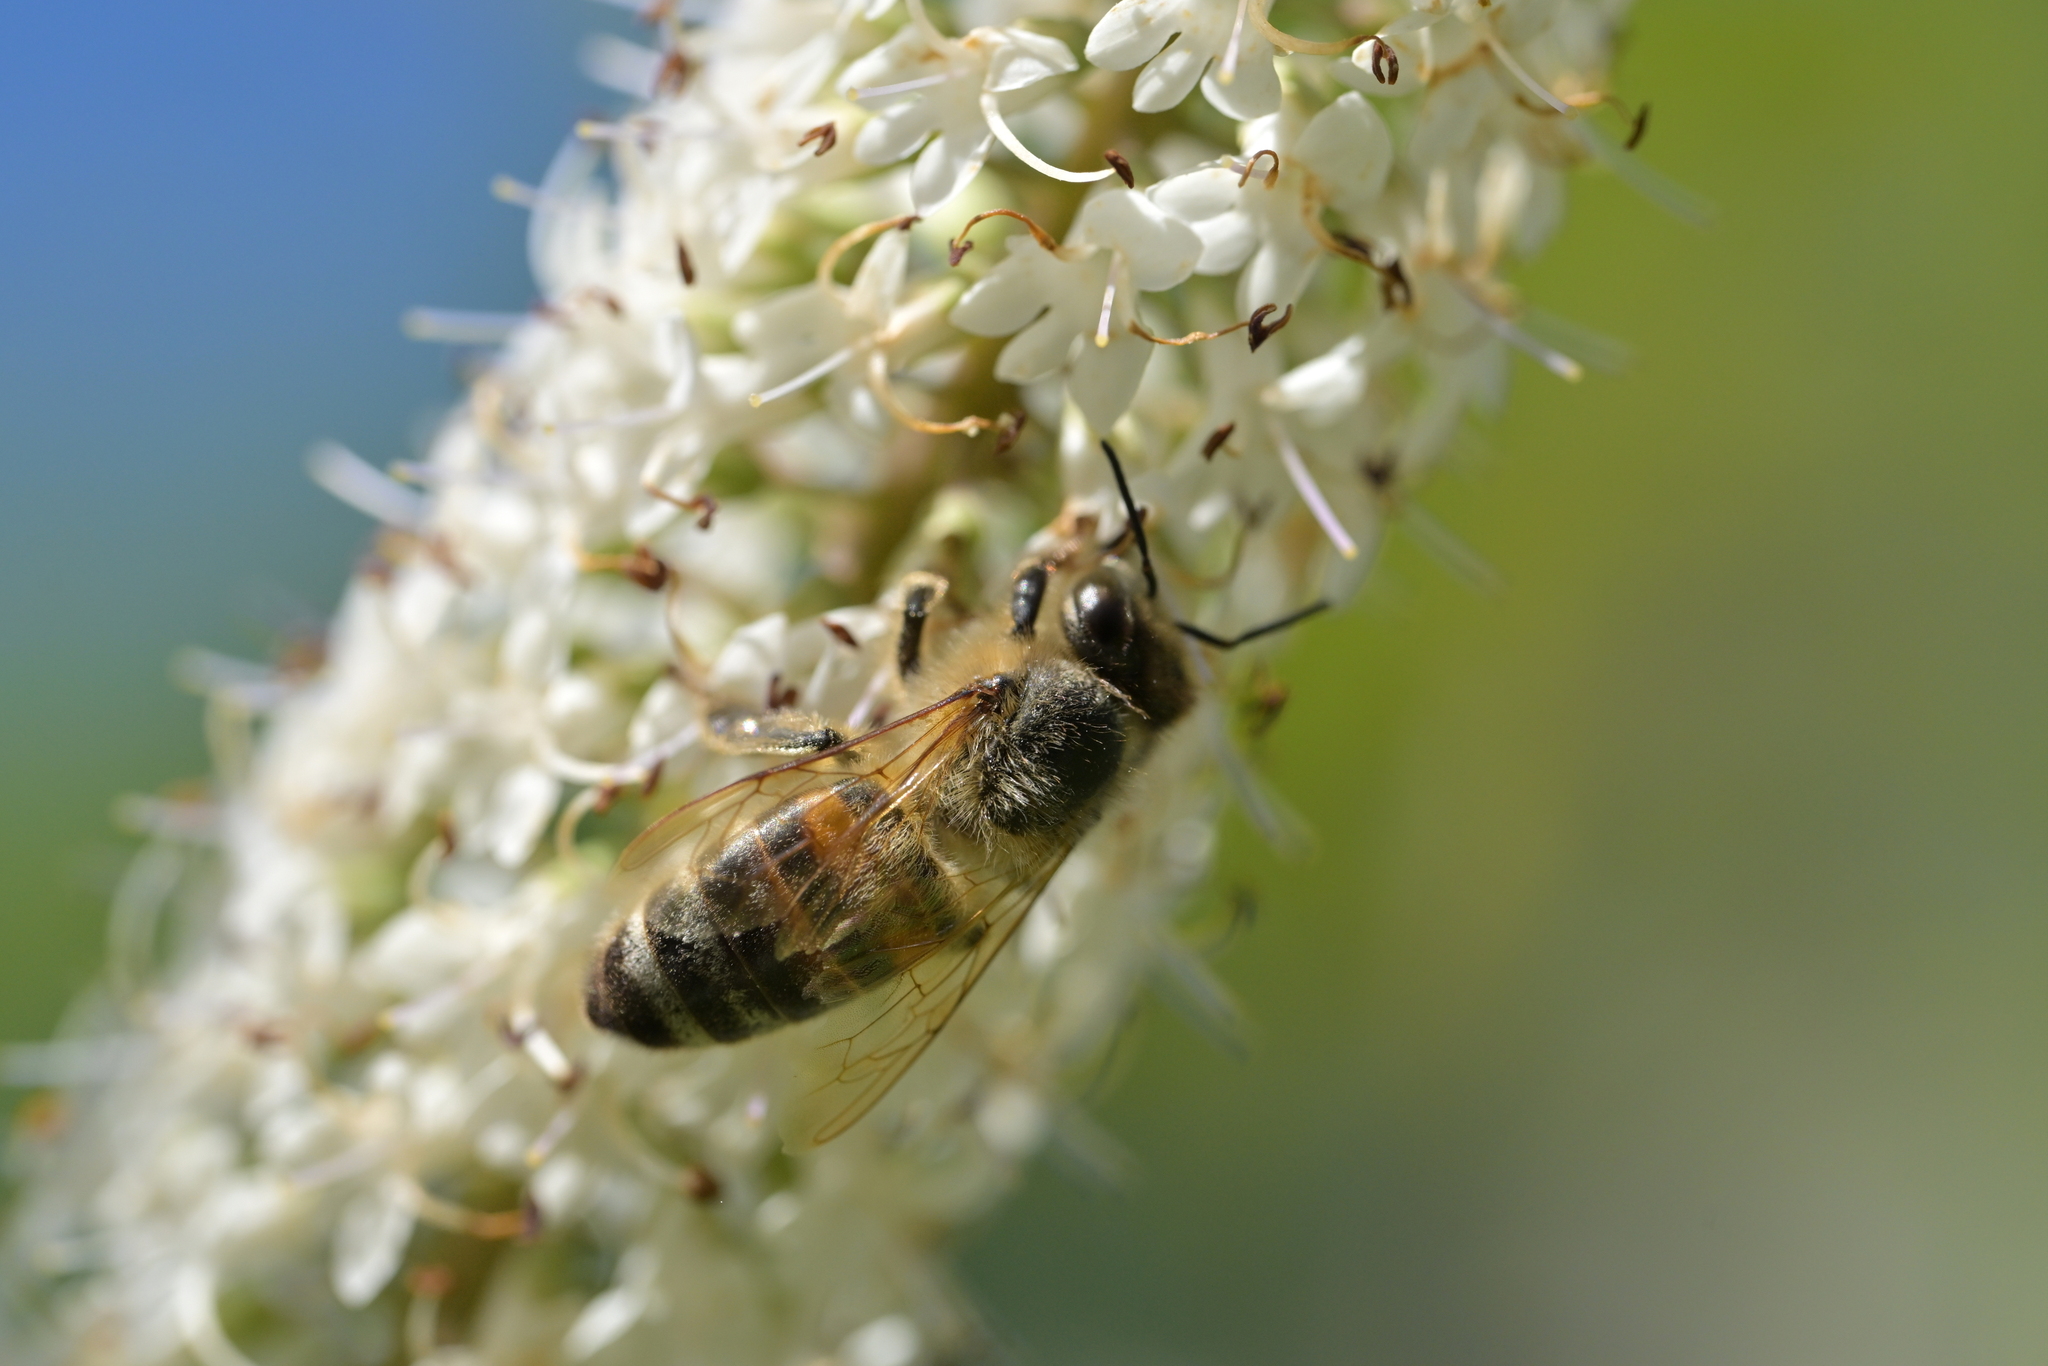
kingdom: Animalia
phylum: Arthropoda
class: Insecta
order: Hymenoptera
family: Apidae
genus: Apis
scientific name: Apis mellifera
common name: Honey bee
